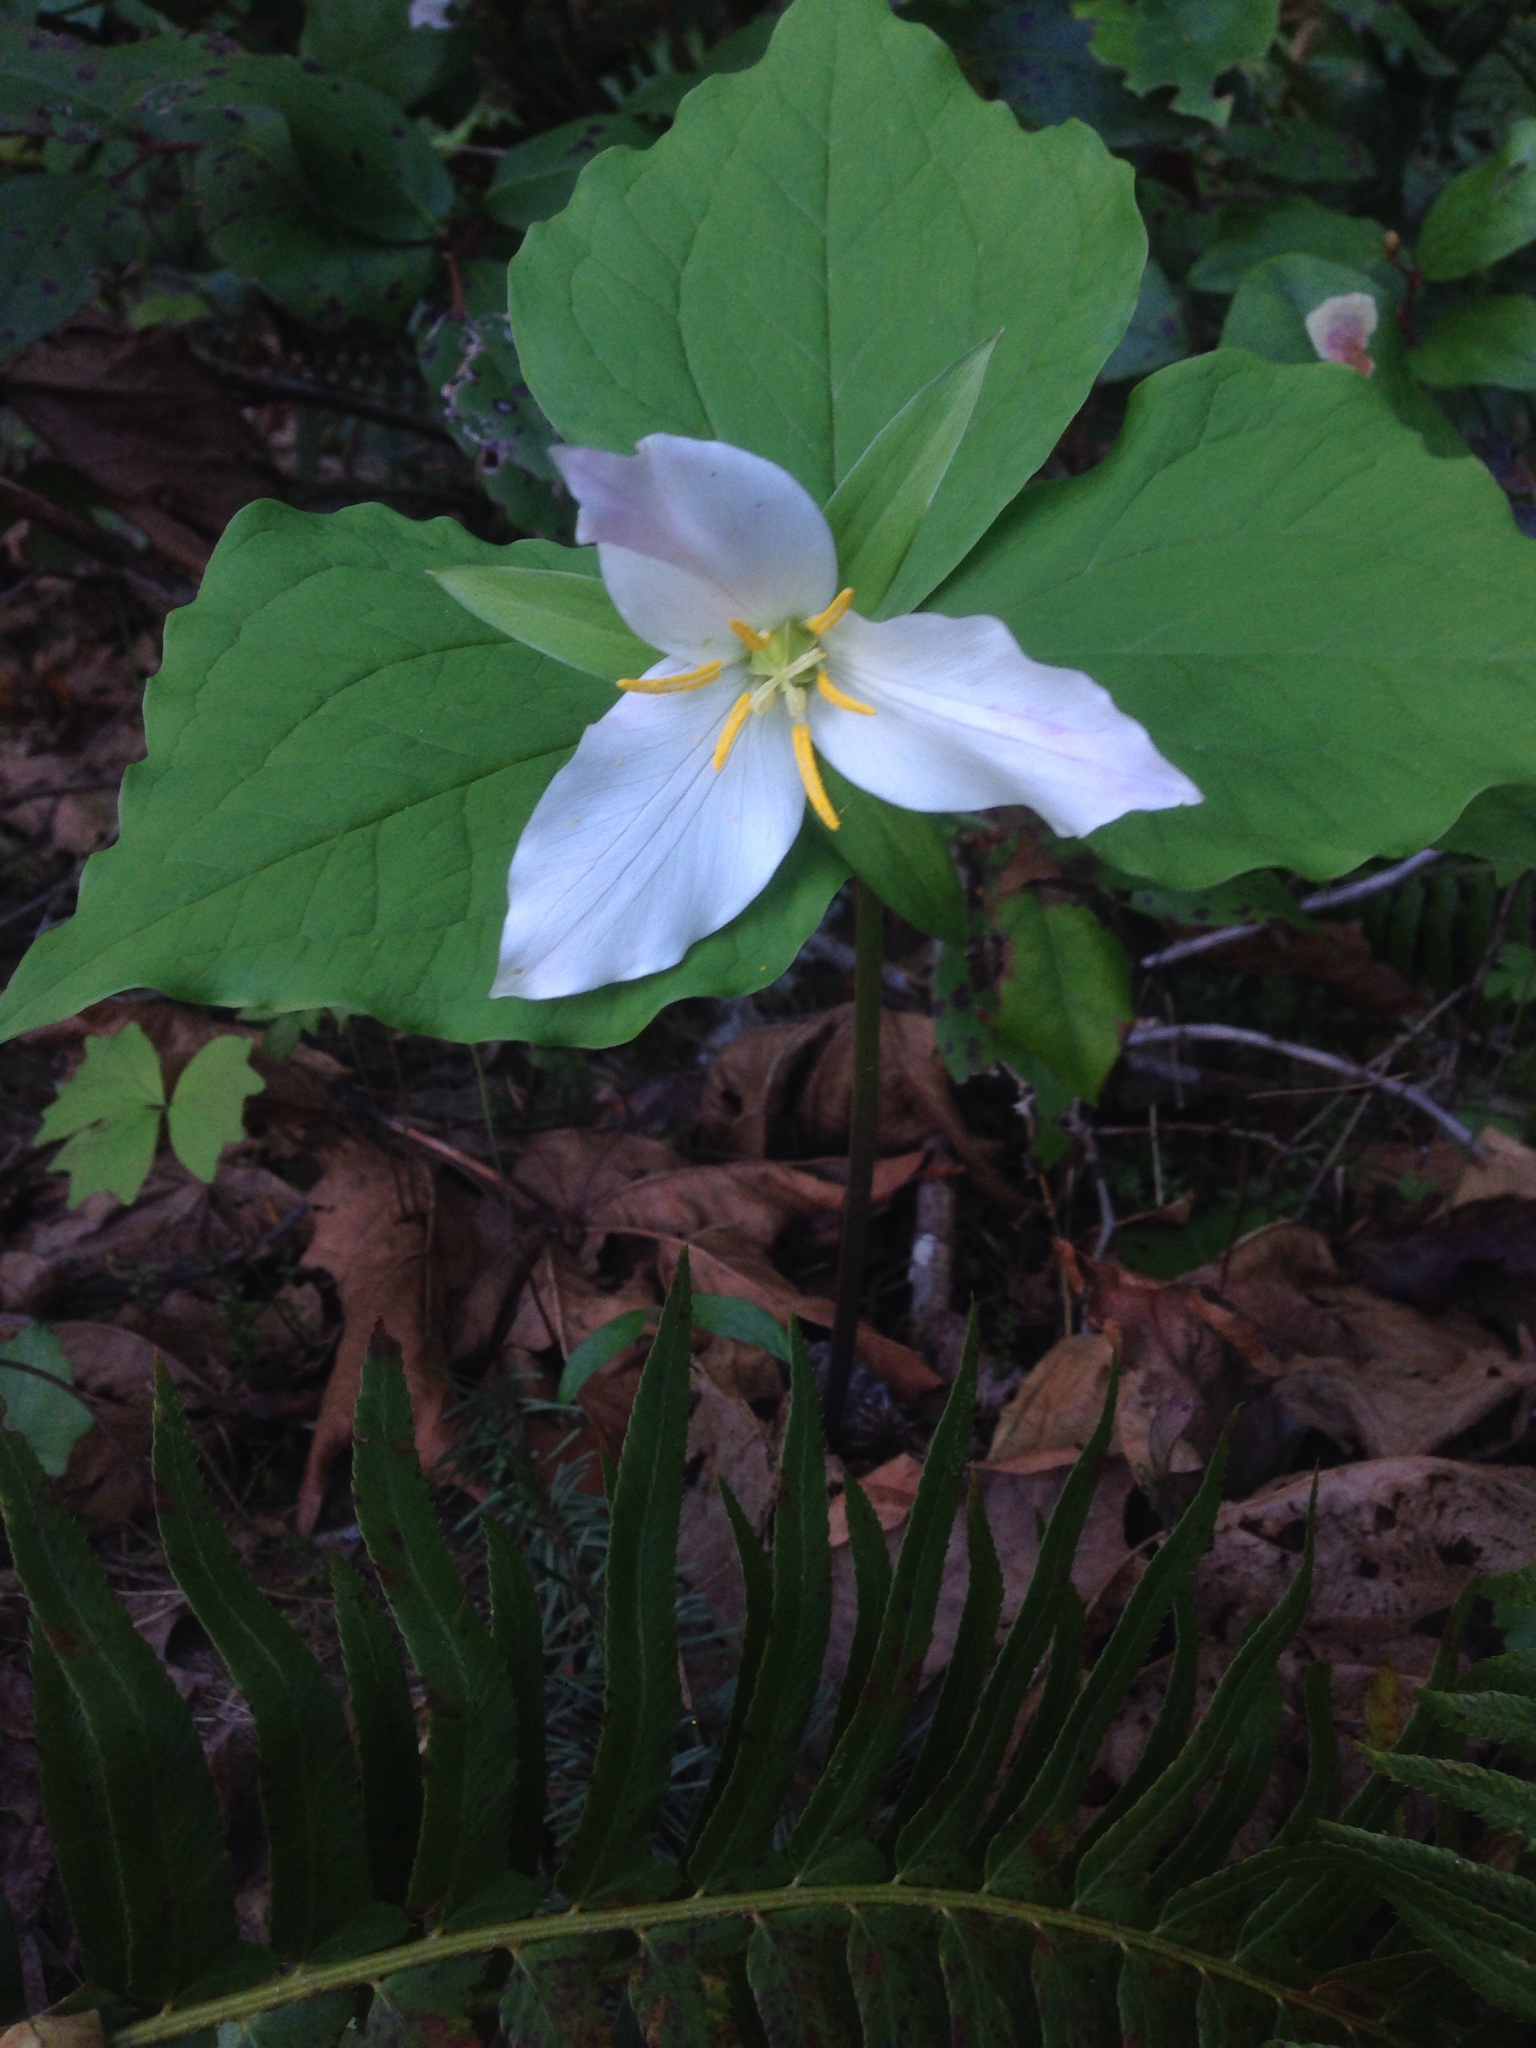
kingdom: Plantae
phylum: Tracheophyta
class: Liliopsida
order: Liliales
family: Melanthiaceae
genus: Trillium
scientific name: Trillium ovatum
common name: Pacific trillium
